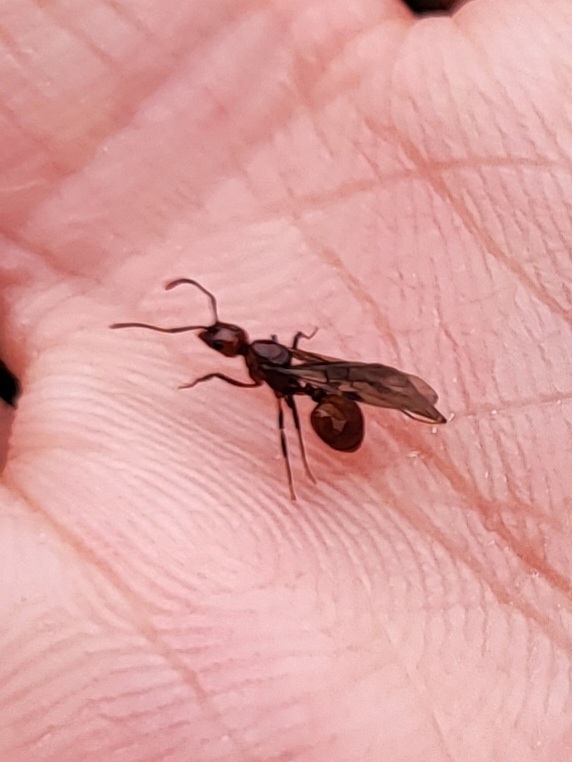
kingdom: Animalia
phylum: Arthropoda
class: Insecta
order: Hymenoptera
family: Formicidae
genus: Aphaenogaster
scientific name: Aphaenogaster tennesseensis
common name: Tennessee thread-waisted ant
